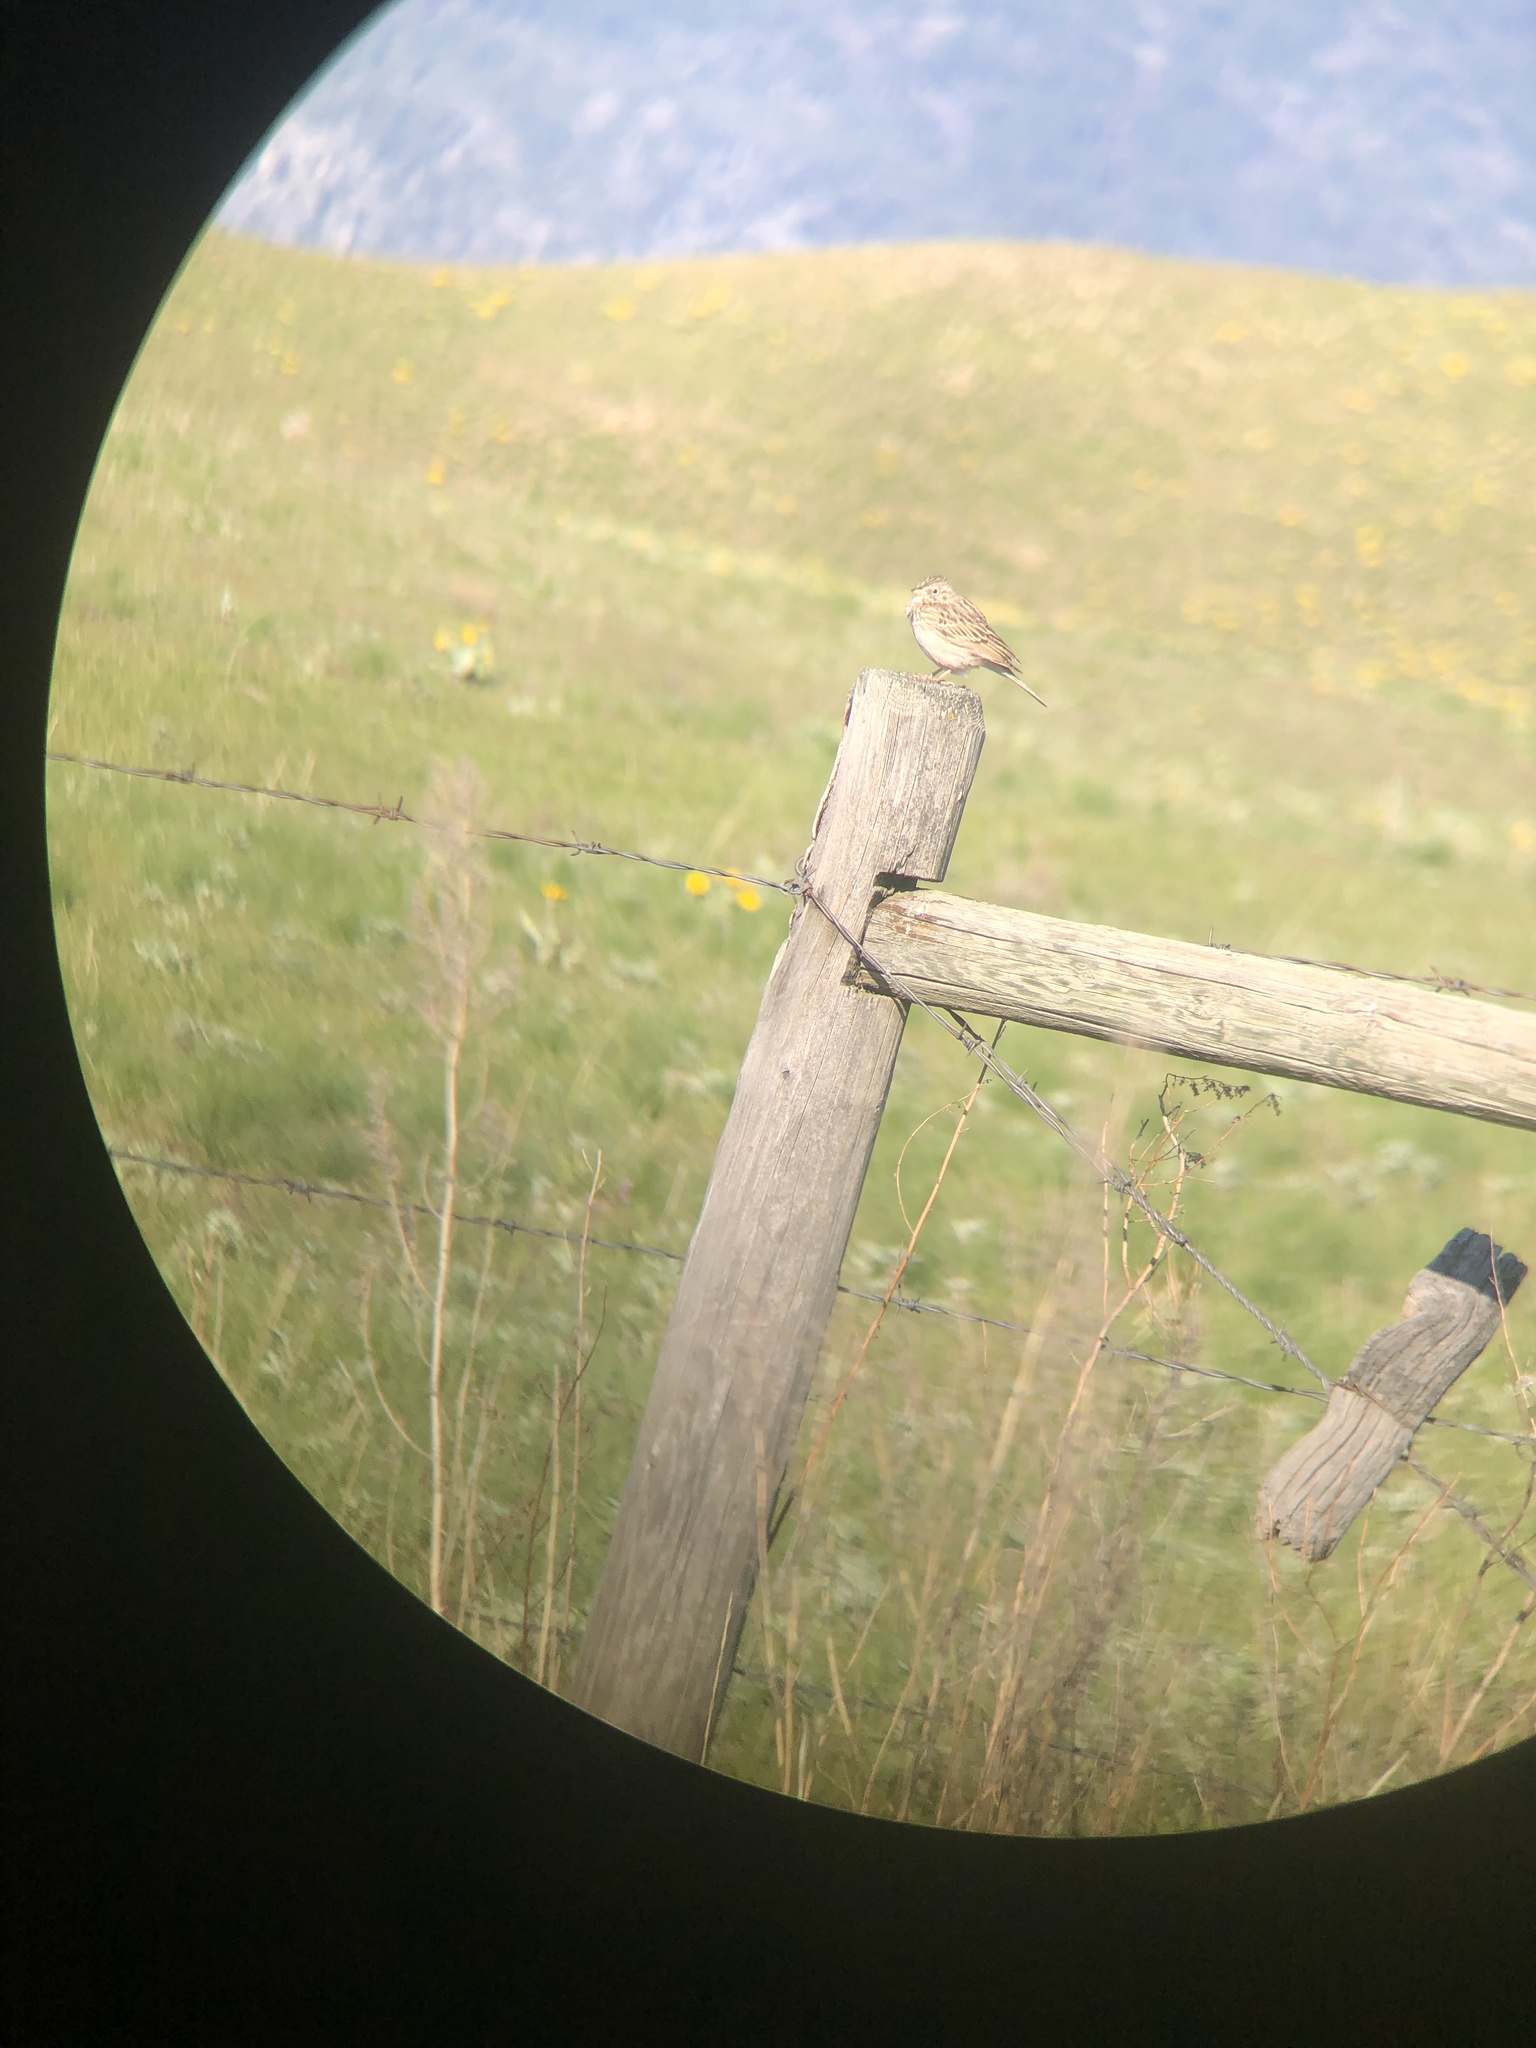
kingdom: Animalia
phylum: Chordata
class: Aves
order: Passeriformes
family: Passerellidae
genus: Pooecetes
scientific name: Pooecetes gramineus
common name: Vesper sparrow
